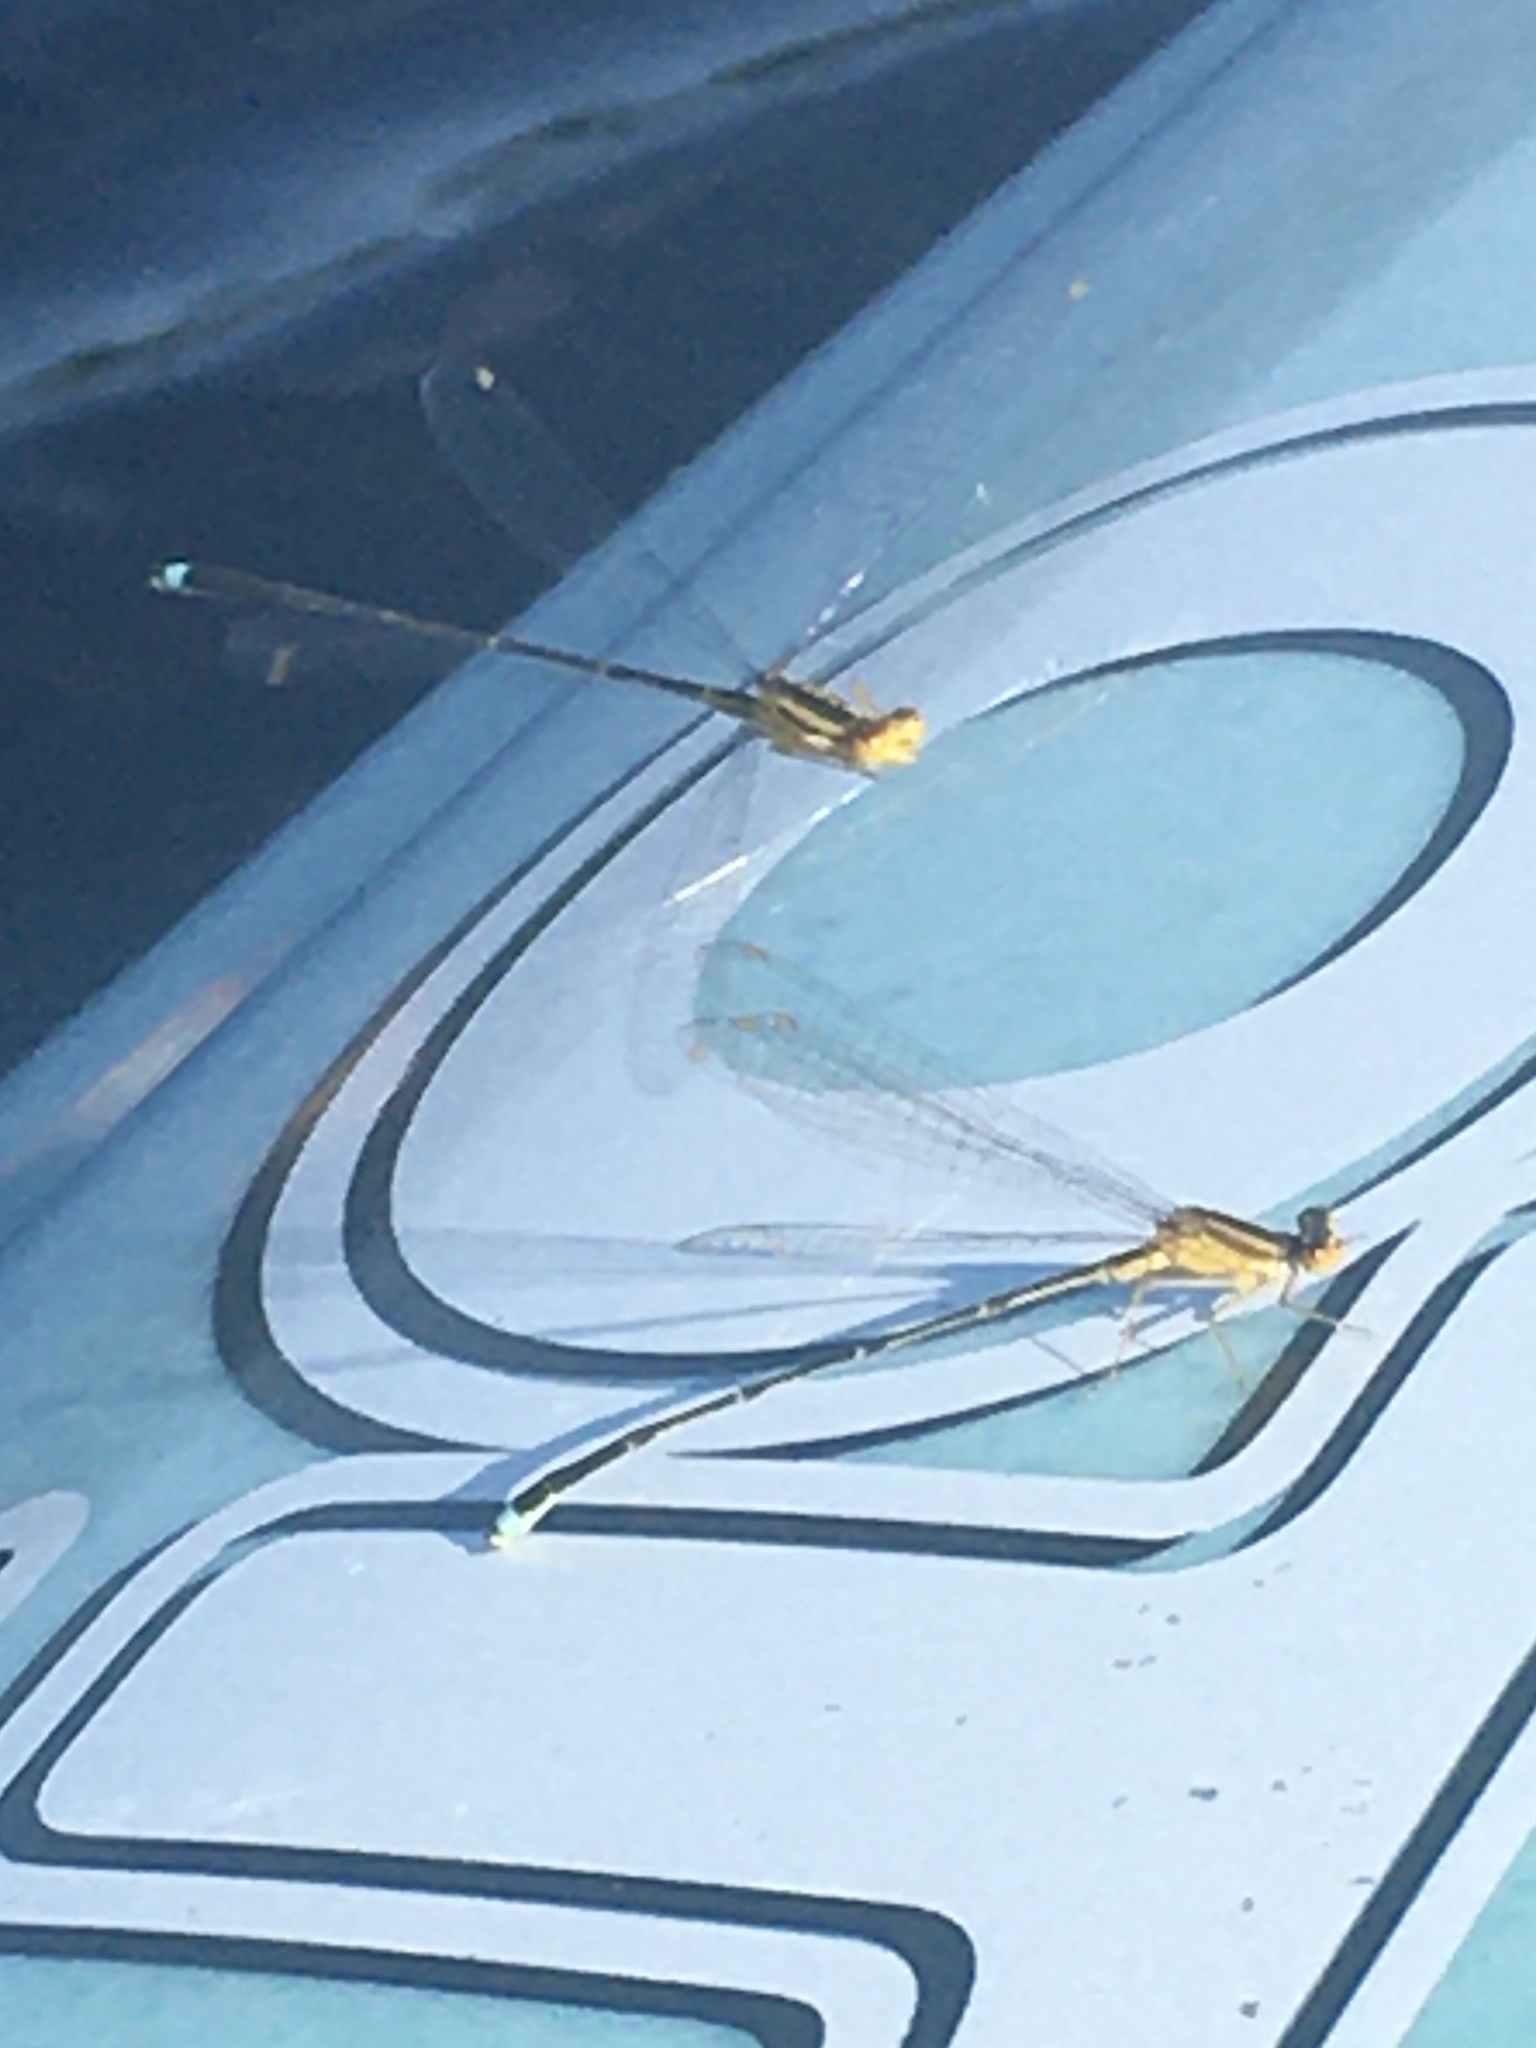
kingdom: Animalia
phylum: Arthropoda
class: Insecta
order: Odonata
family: Coenagrionidae
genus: Enallagma
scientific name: Enallagma vesperum
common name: Vesper bluet
